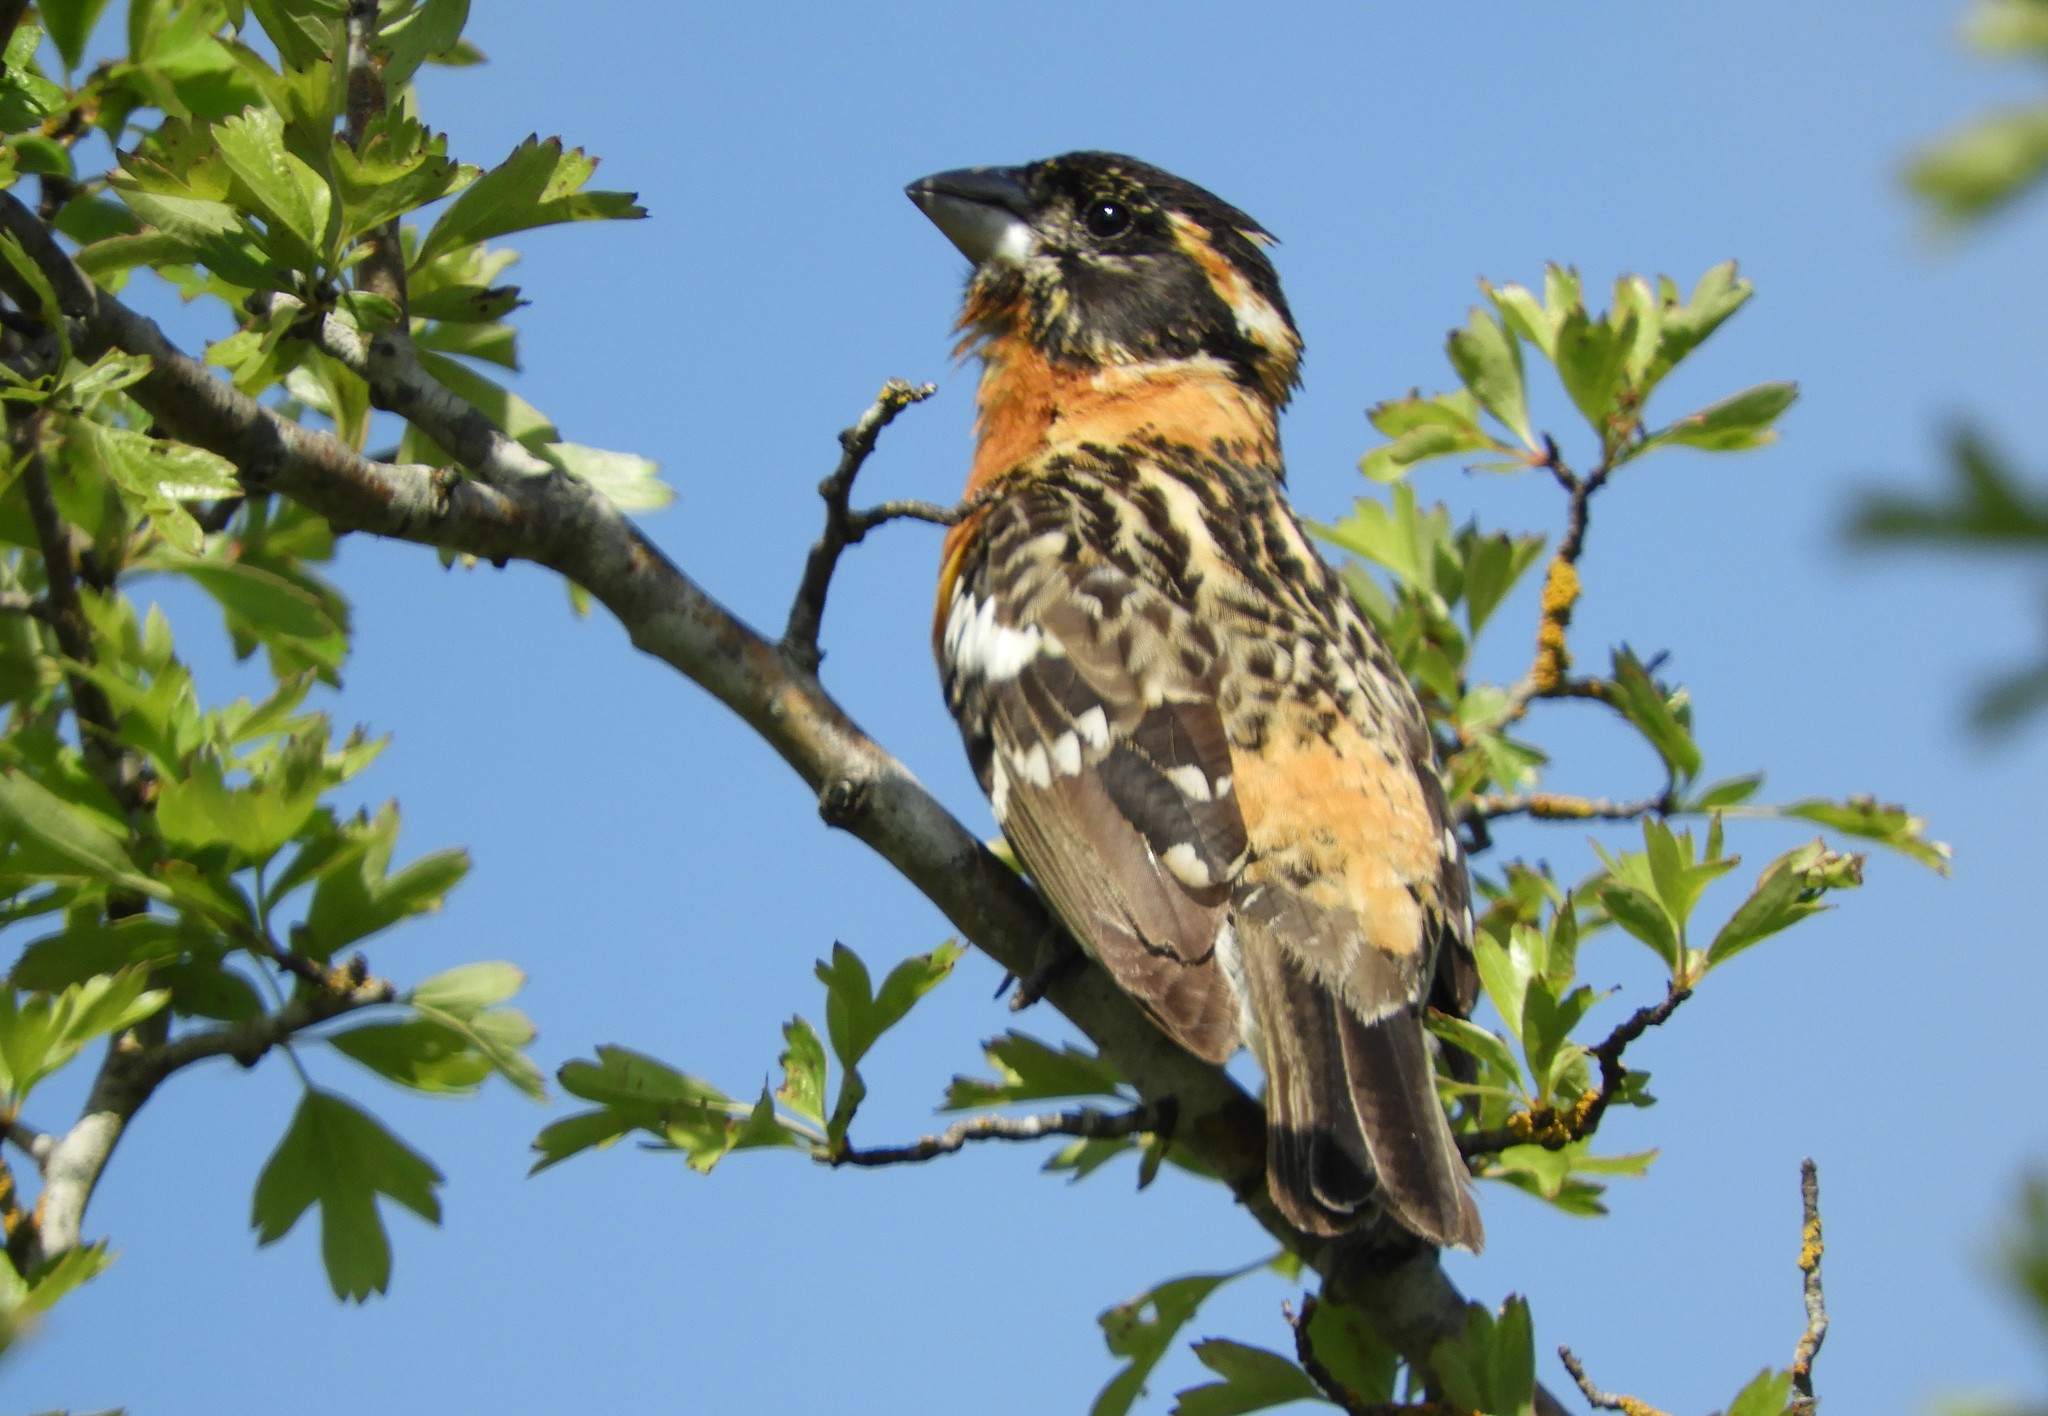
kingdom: Animalia
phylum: Chordata
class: Aves
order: Passeriformes
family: Cardinalidae
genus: Pheucticus
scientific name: Pheucticus melanocephalus
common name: Black-headed grosbeak
